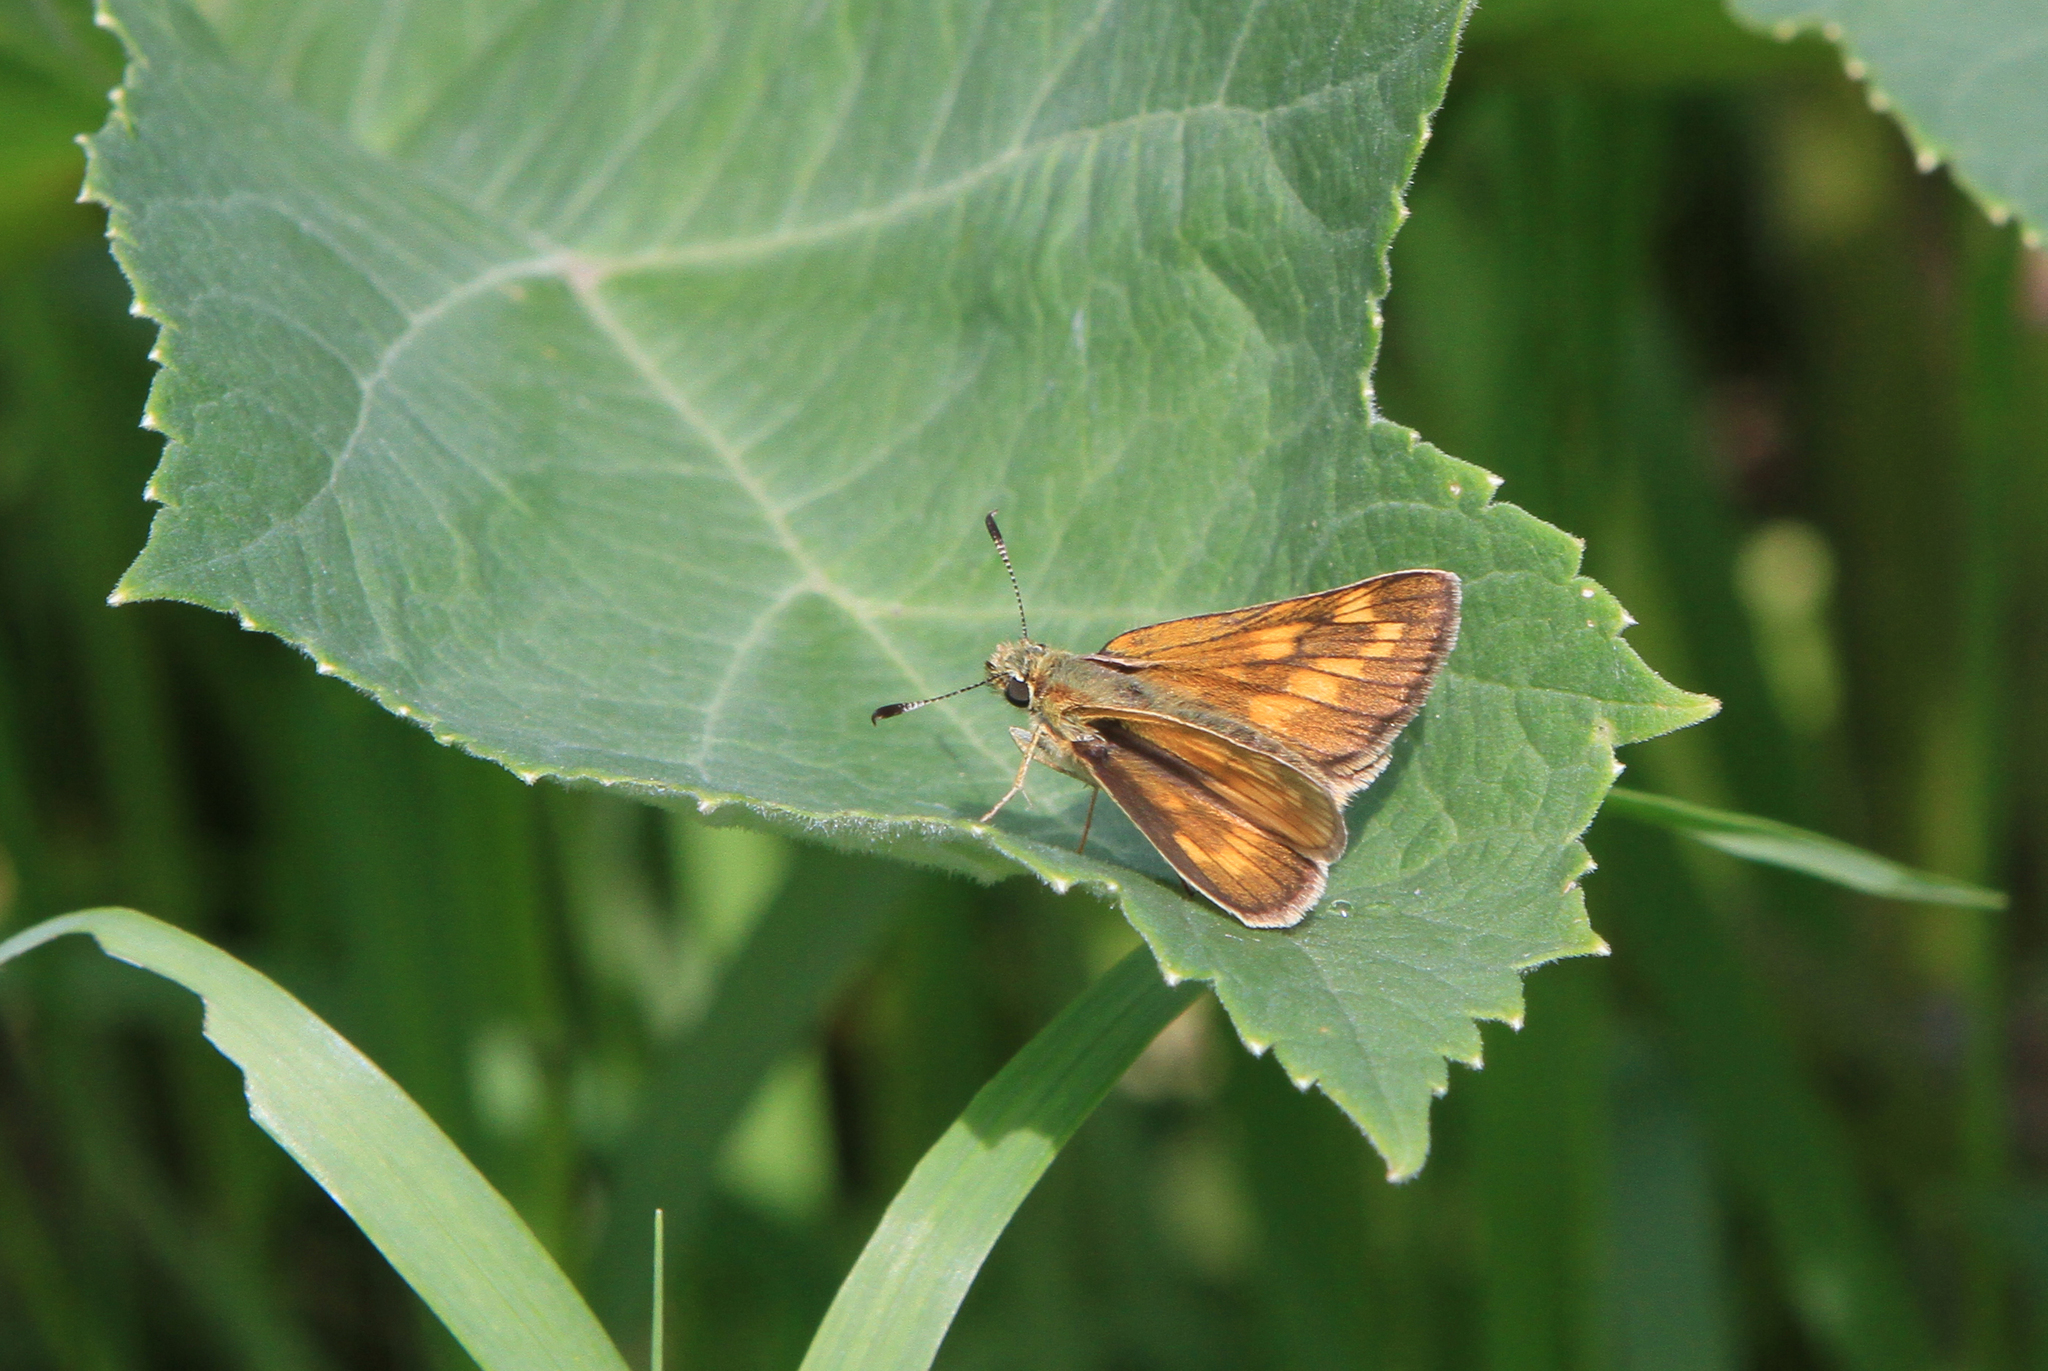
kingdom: Animalia
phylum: Arthropoda
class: Insecta
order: Lepidoptera
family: Hesperiidae
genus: Ochlodes
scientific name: Ochlodes venata
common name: Large skipper
